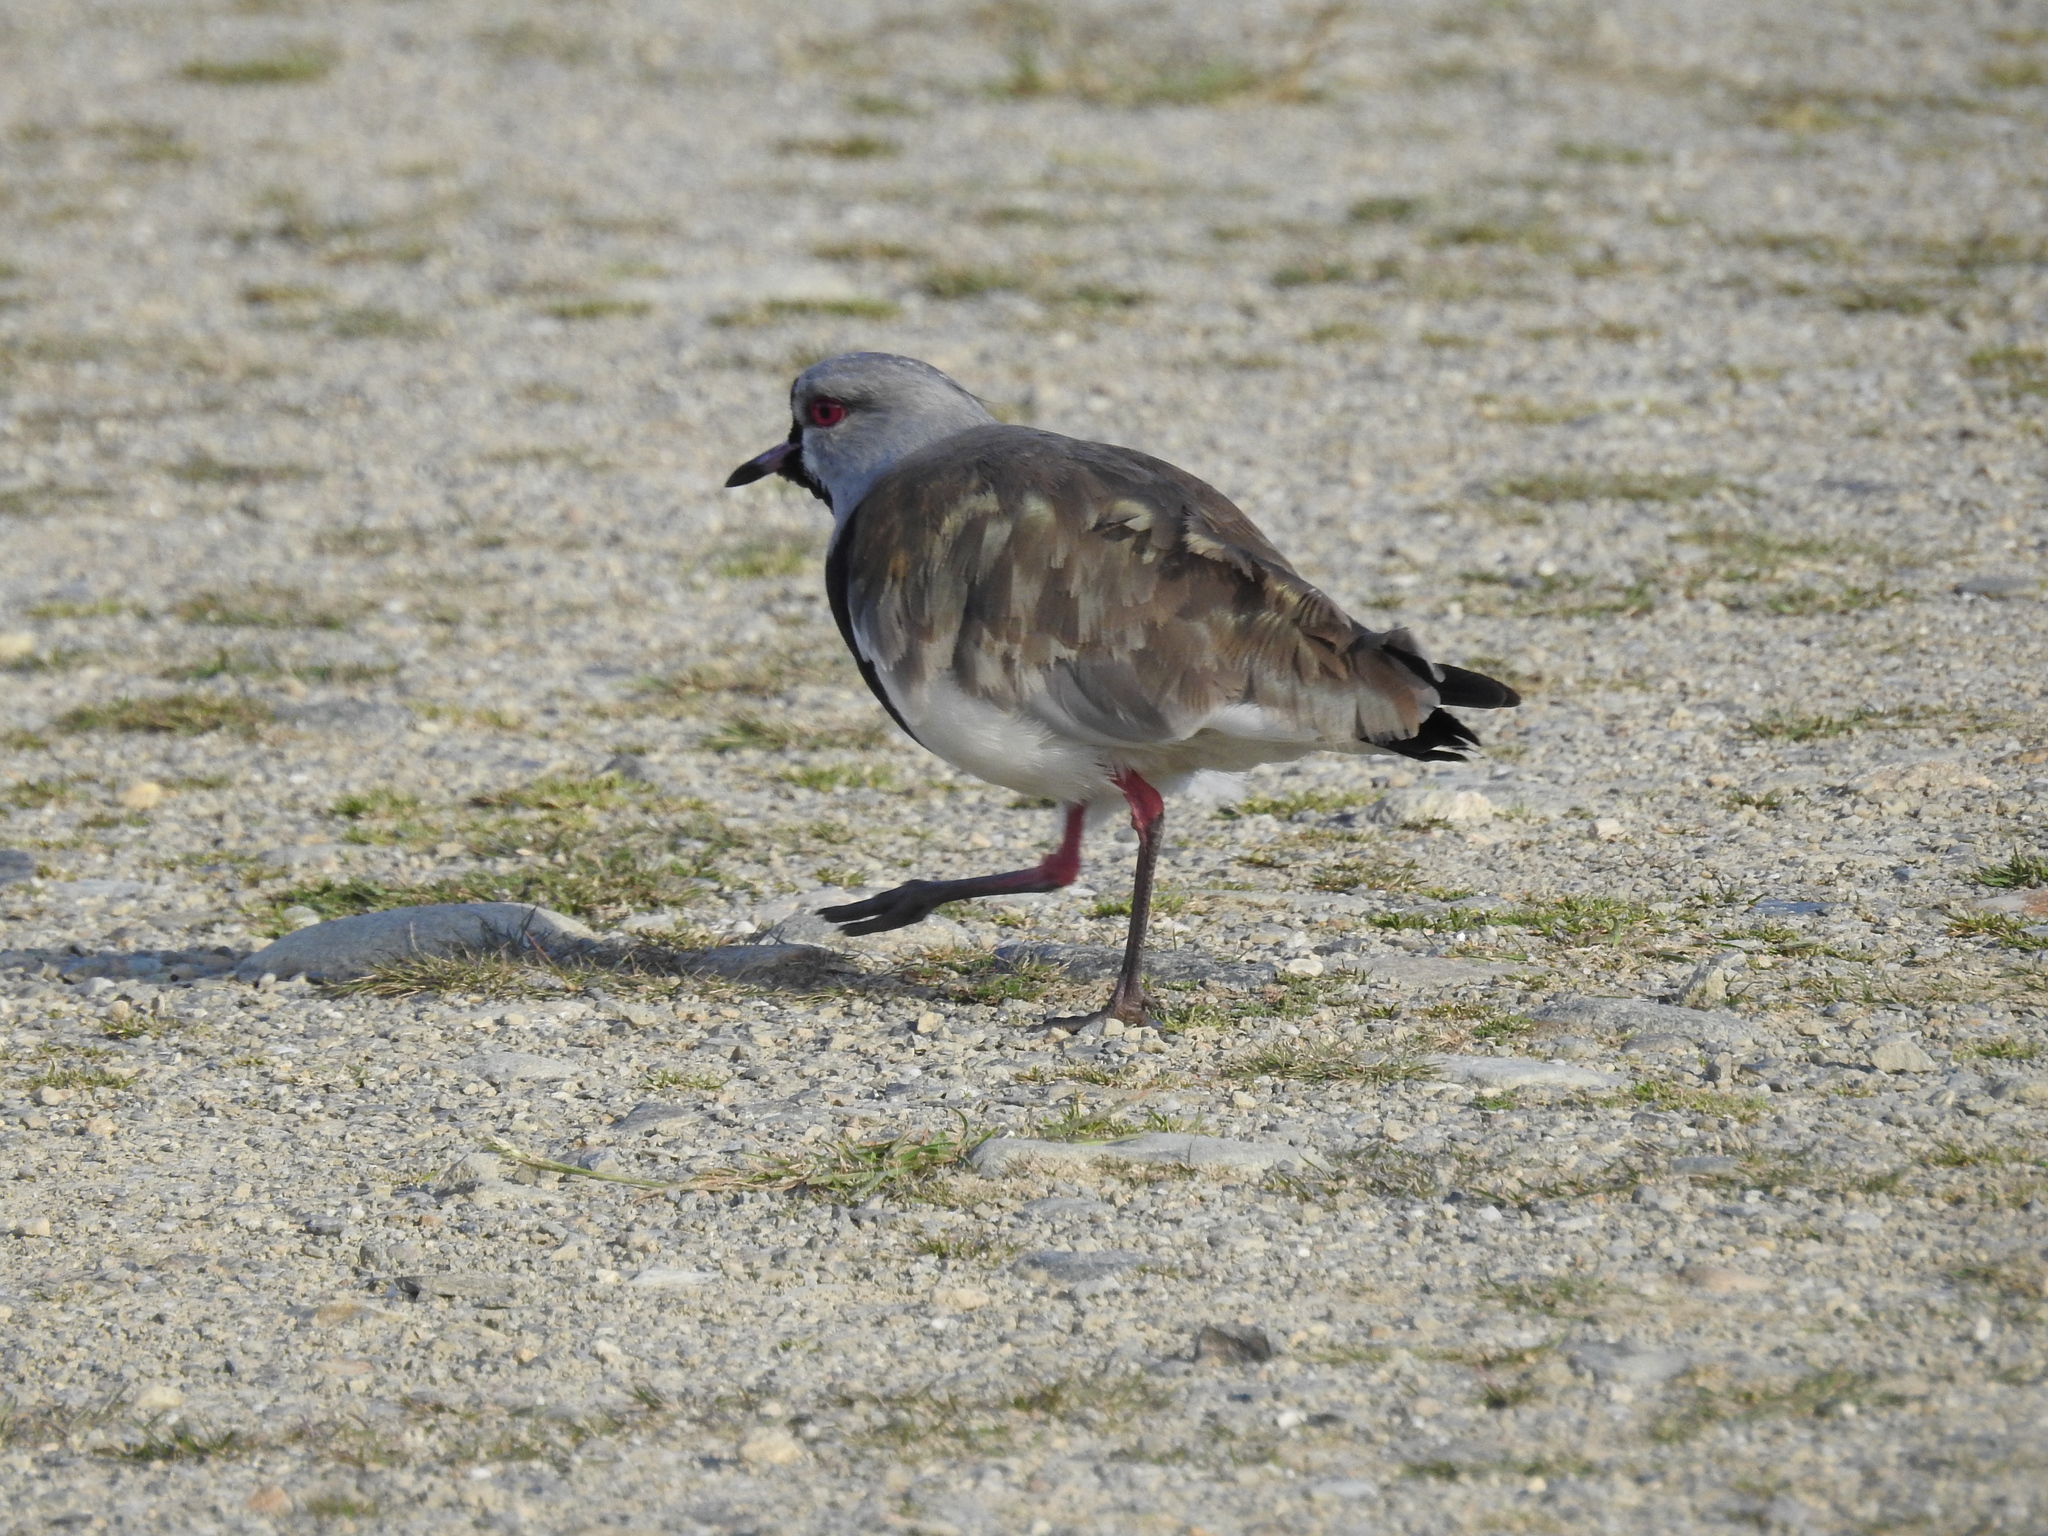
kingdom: Animalia
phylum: Chordata
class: Aves
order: Charadriiformes
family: Charadriidae
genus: Vanellus
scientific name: Vanellus chilensis
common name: Southern lapwing
